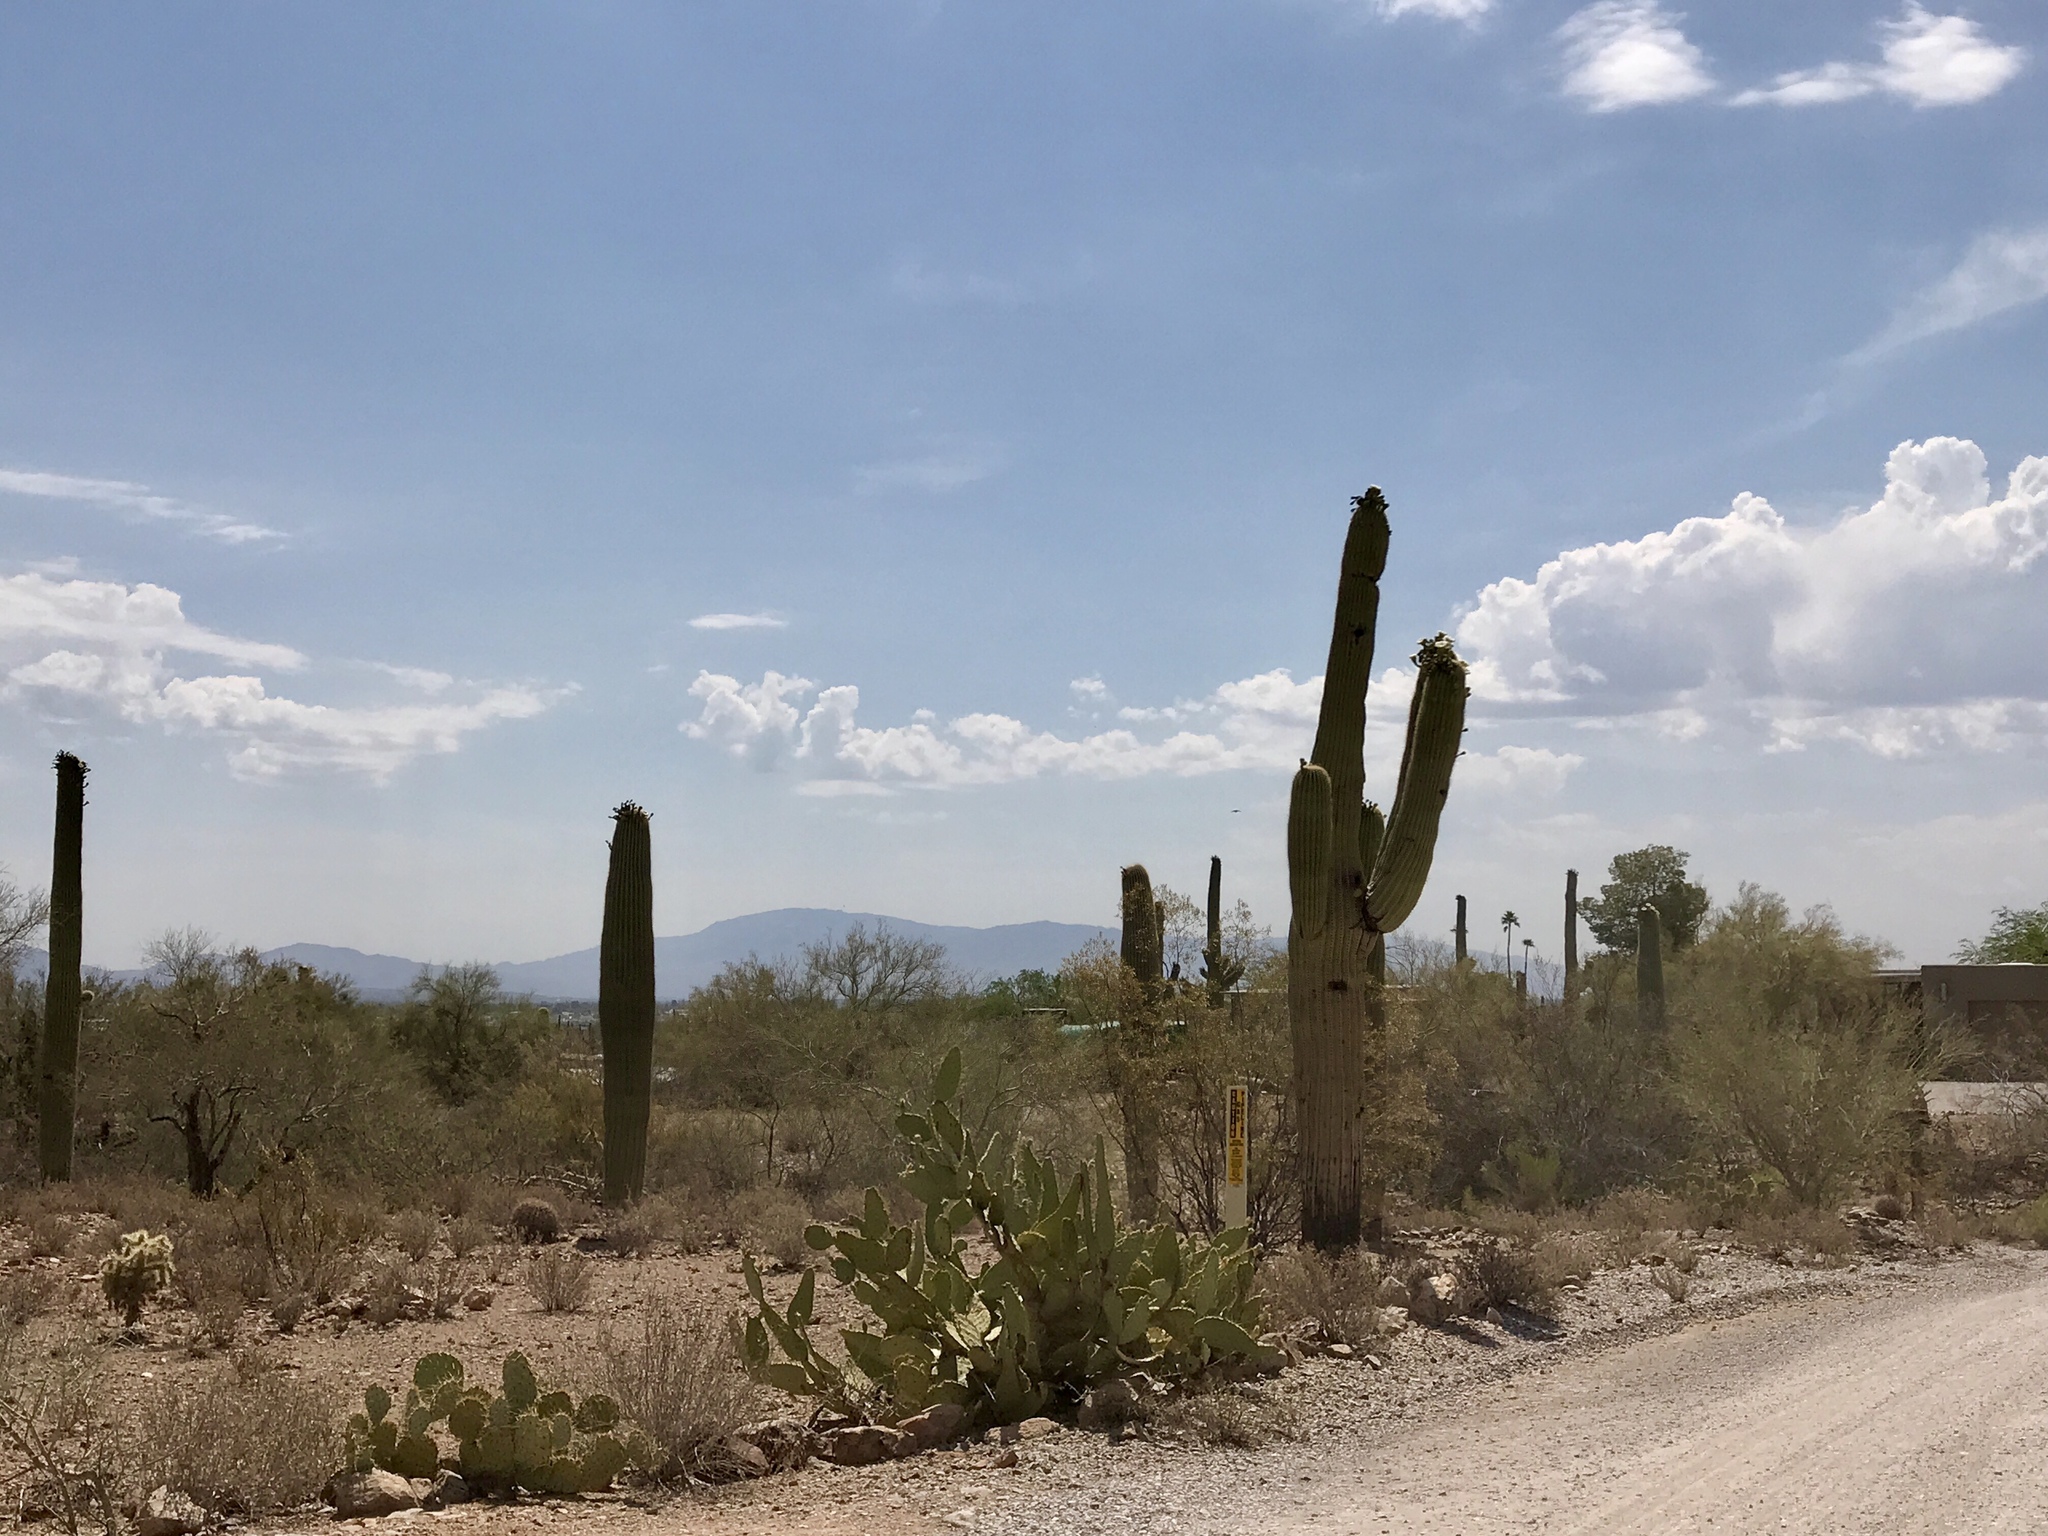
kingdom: Plantae
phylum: Tracheophyta
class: Magnoliopsida
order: Caryophyllales
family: Cactaceae
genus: Carnegiea
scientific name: Carnegiea gigantea
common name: Saguaro
